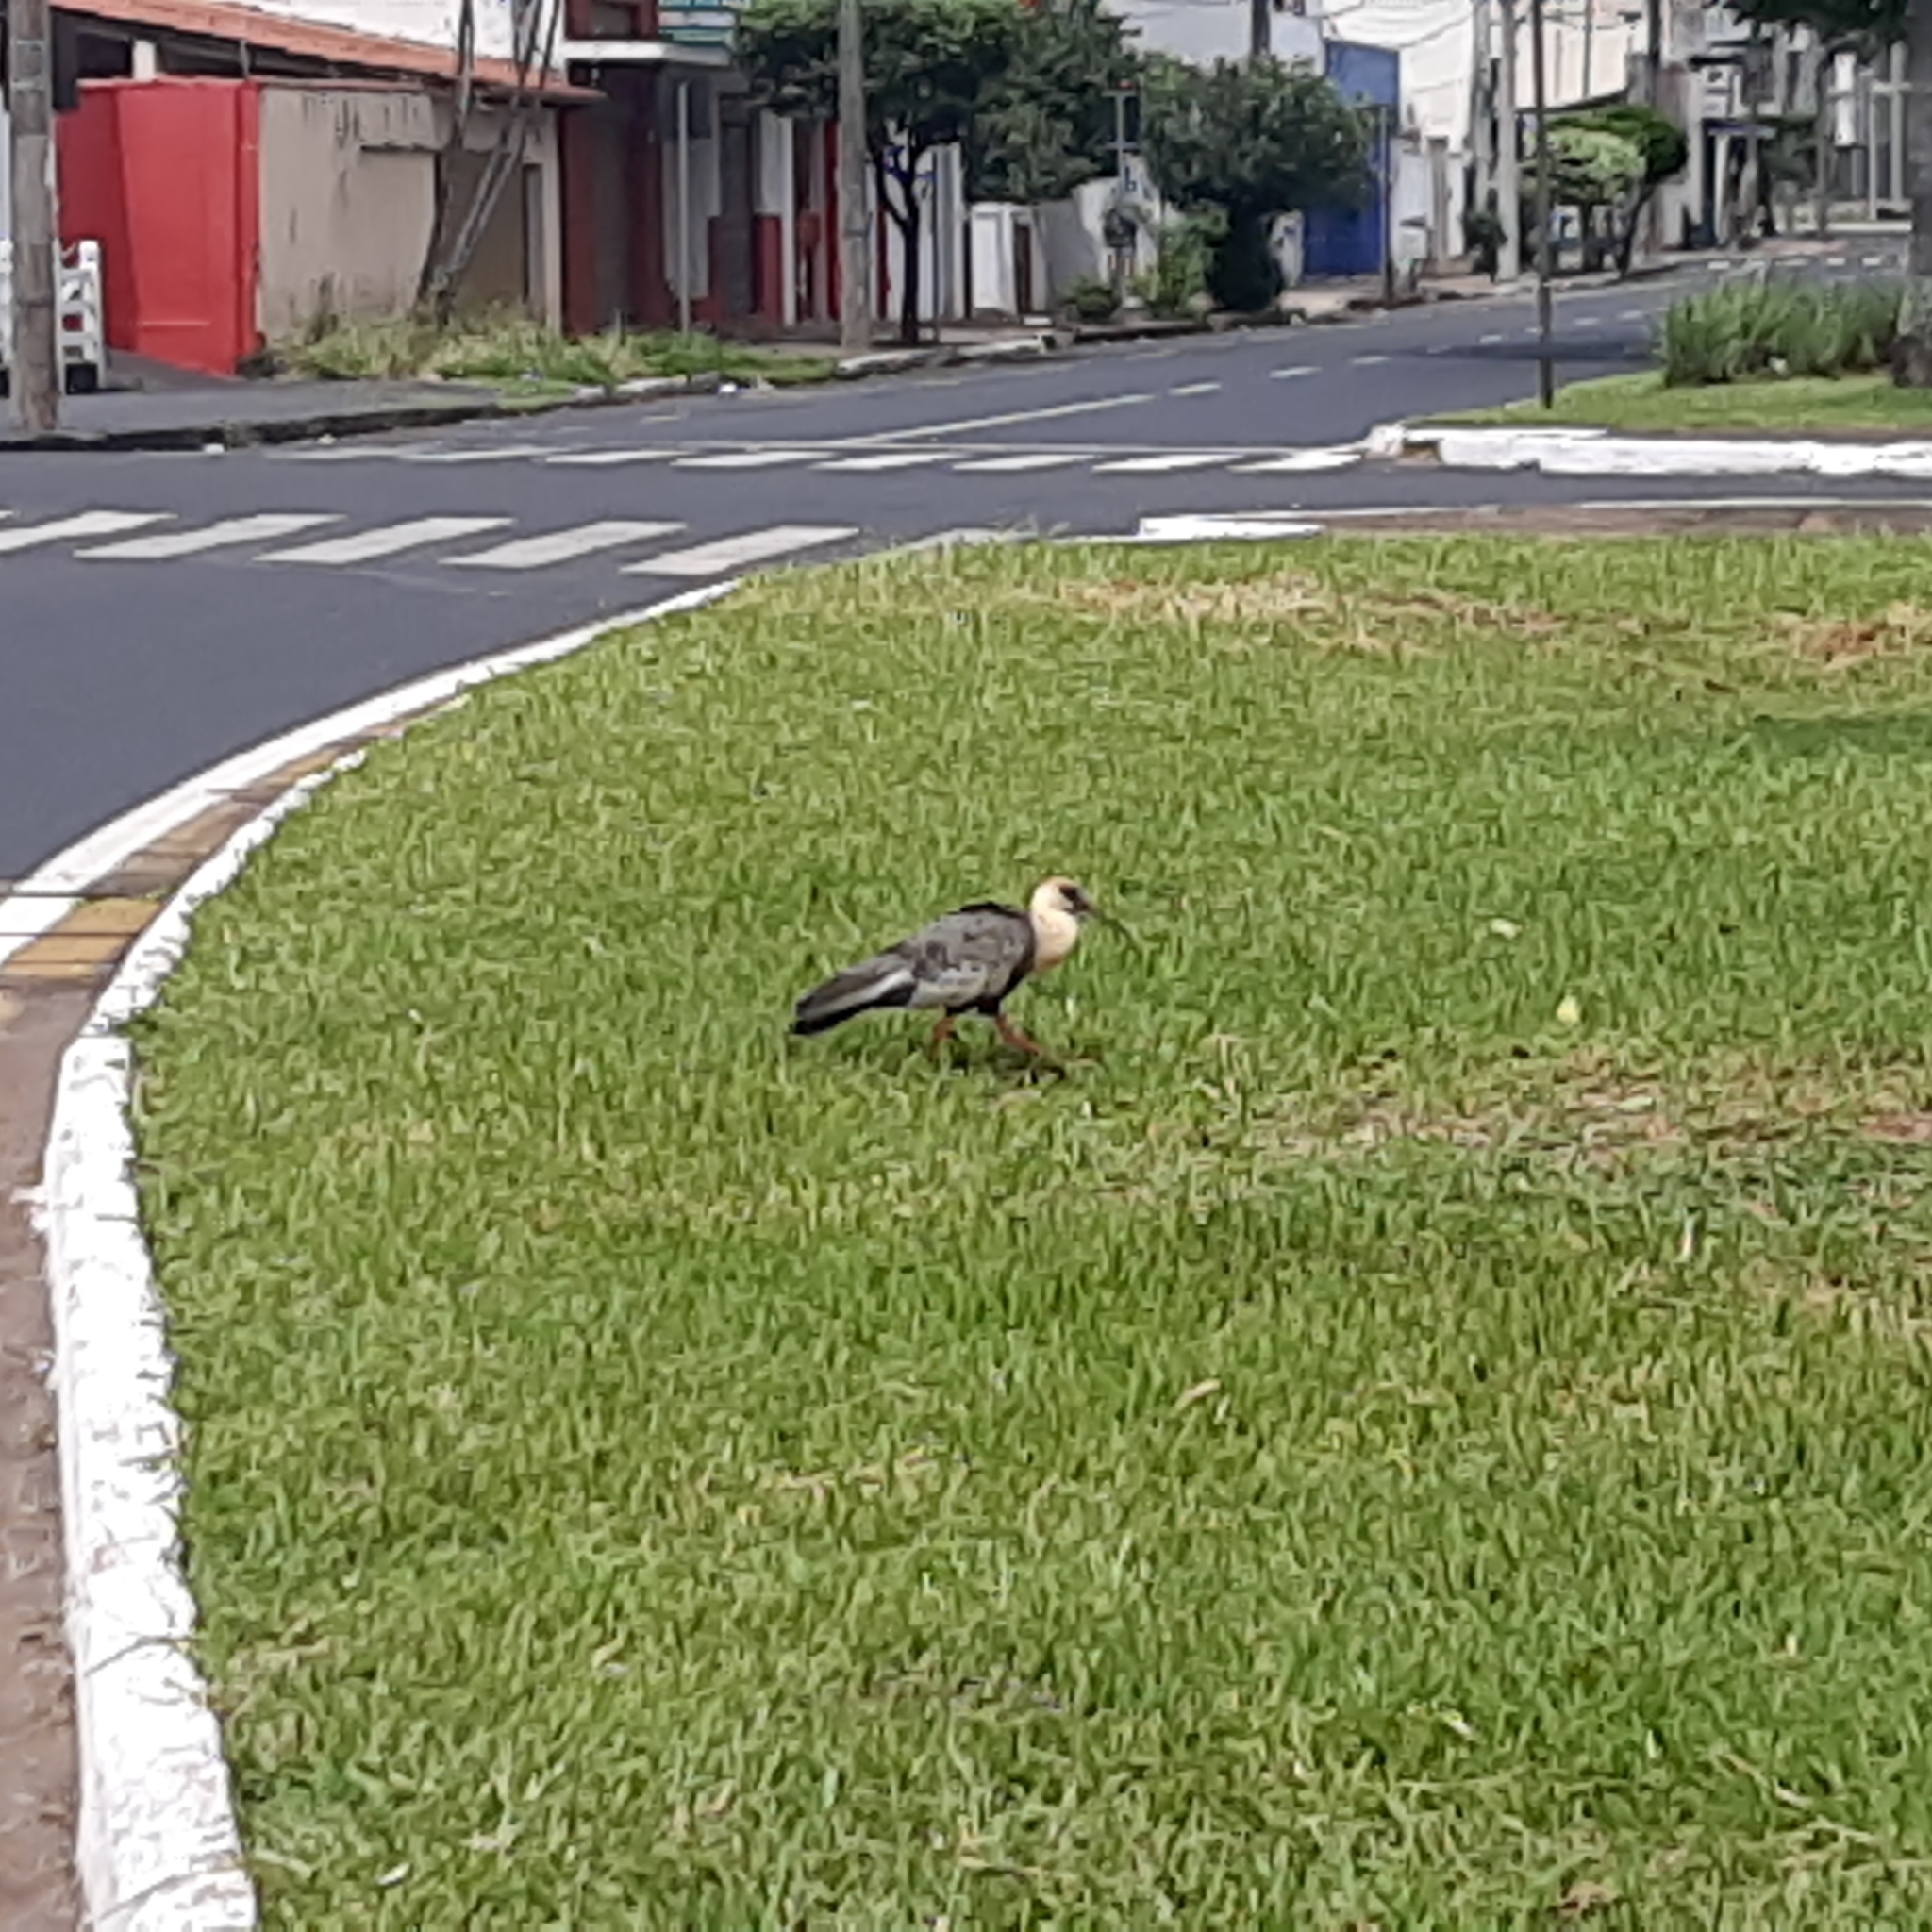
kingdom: Animalia
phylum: Chordata
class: Aves
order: Pelecaniformes
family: Threskiornithidae
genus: Theristicus
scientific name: Theristicus caudatus
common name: Buff-necked ibis
